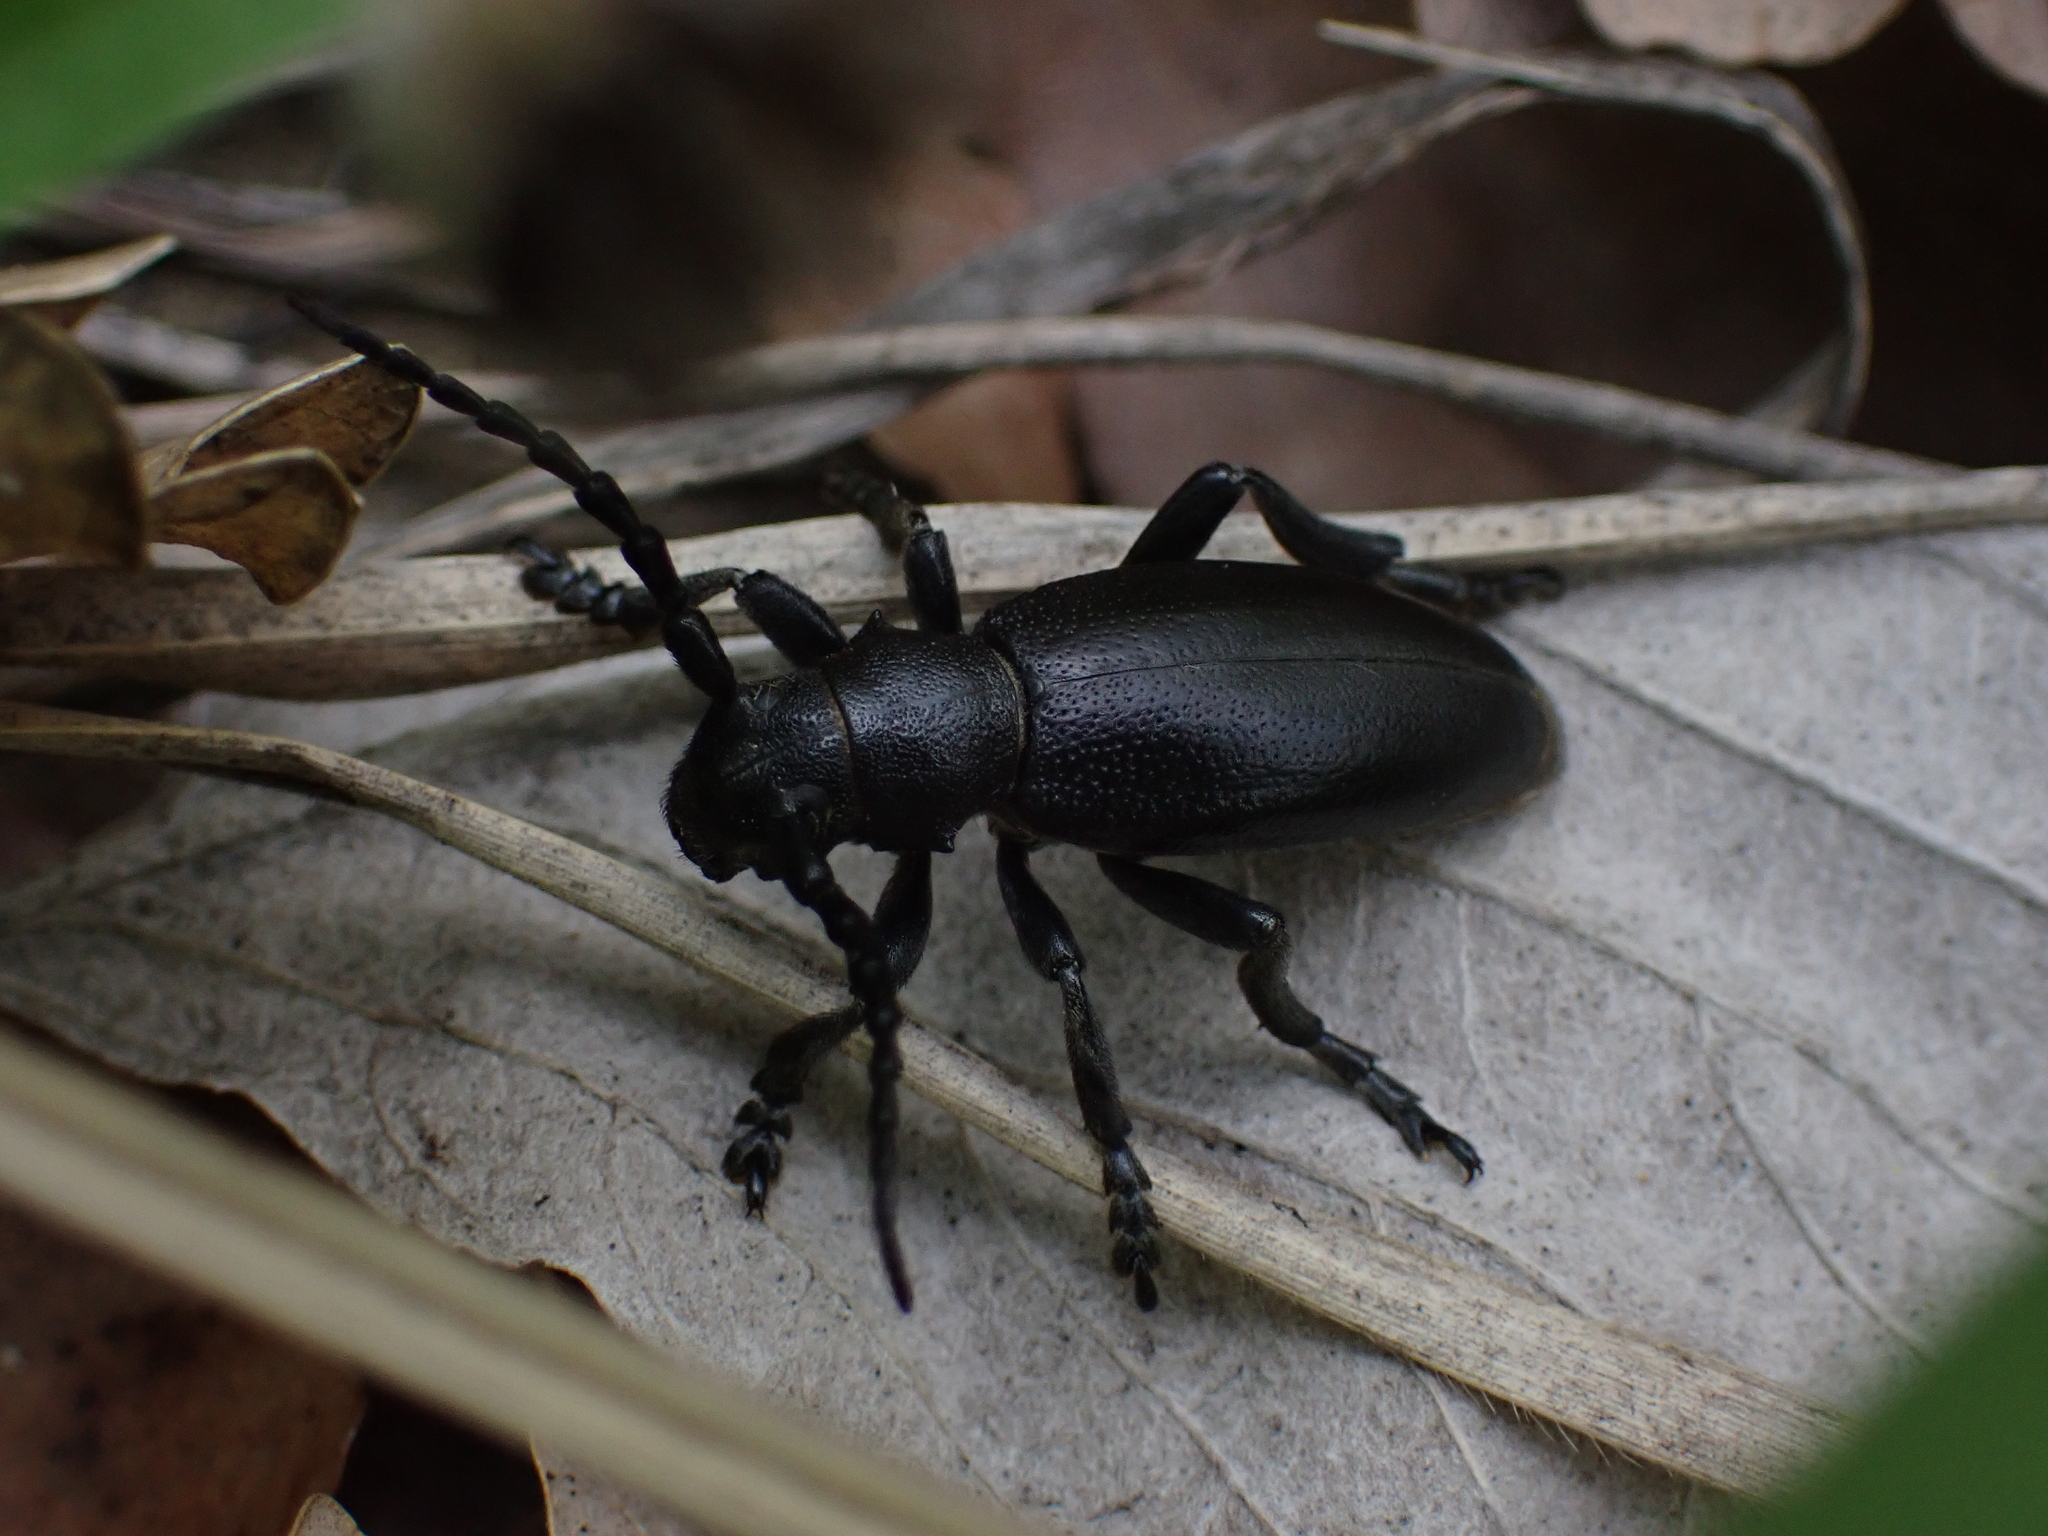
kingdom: Animalia
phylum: Arthropoda
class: Insecta
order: Coleoptera
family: Cerambycidae
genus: Dorcadion
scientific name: Dorcadion aethiops
